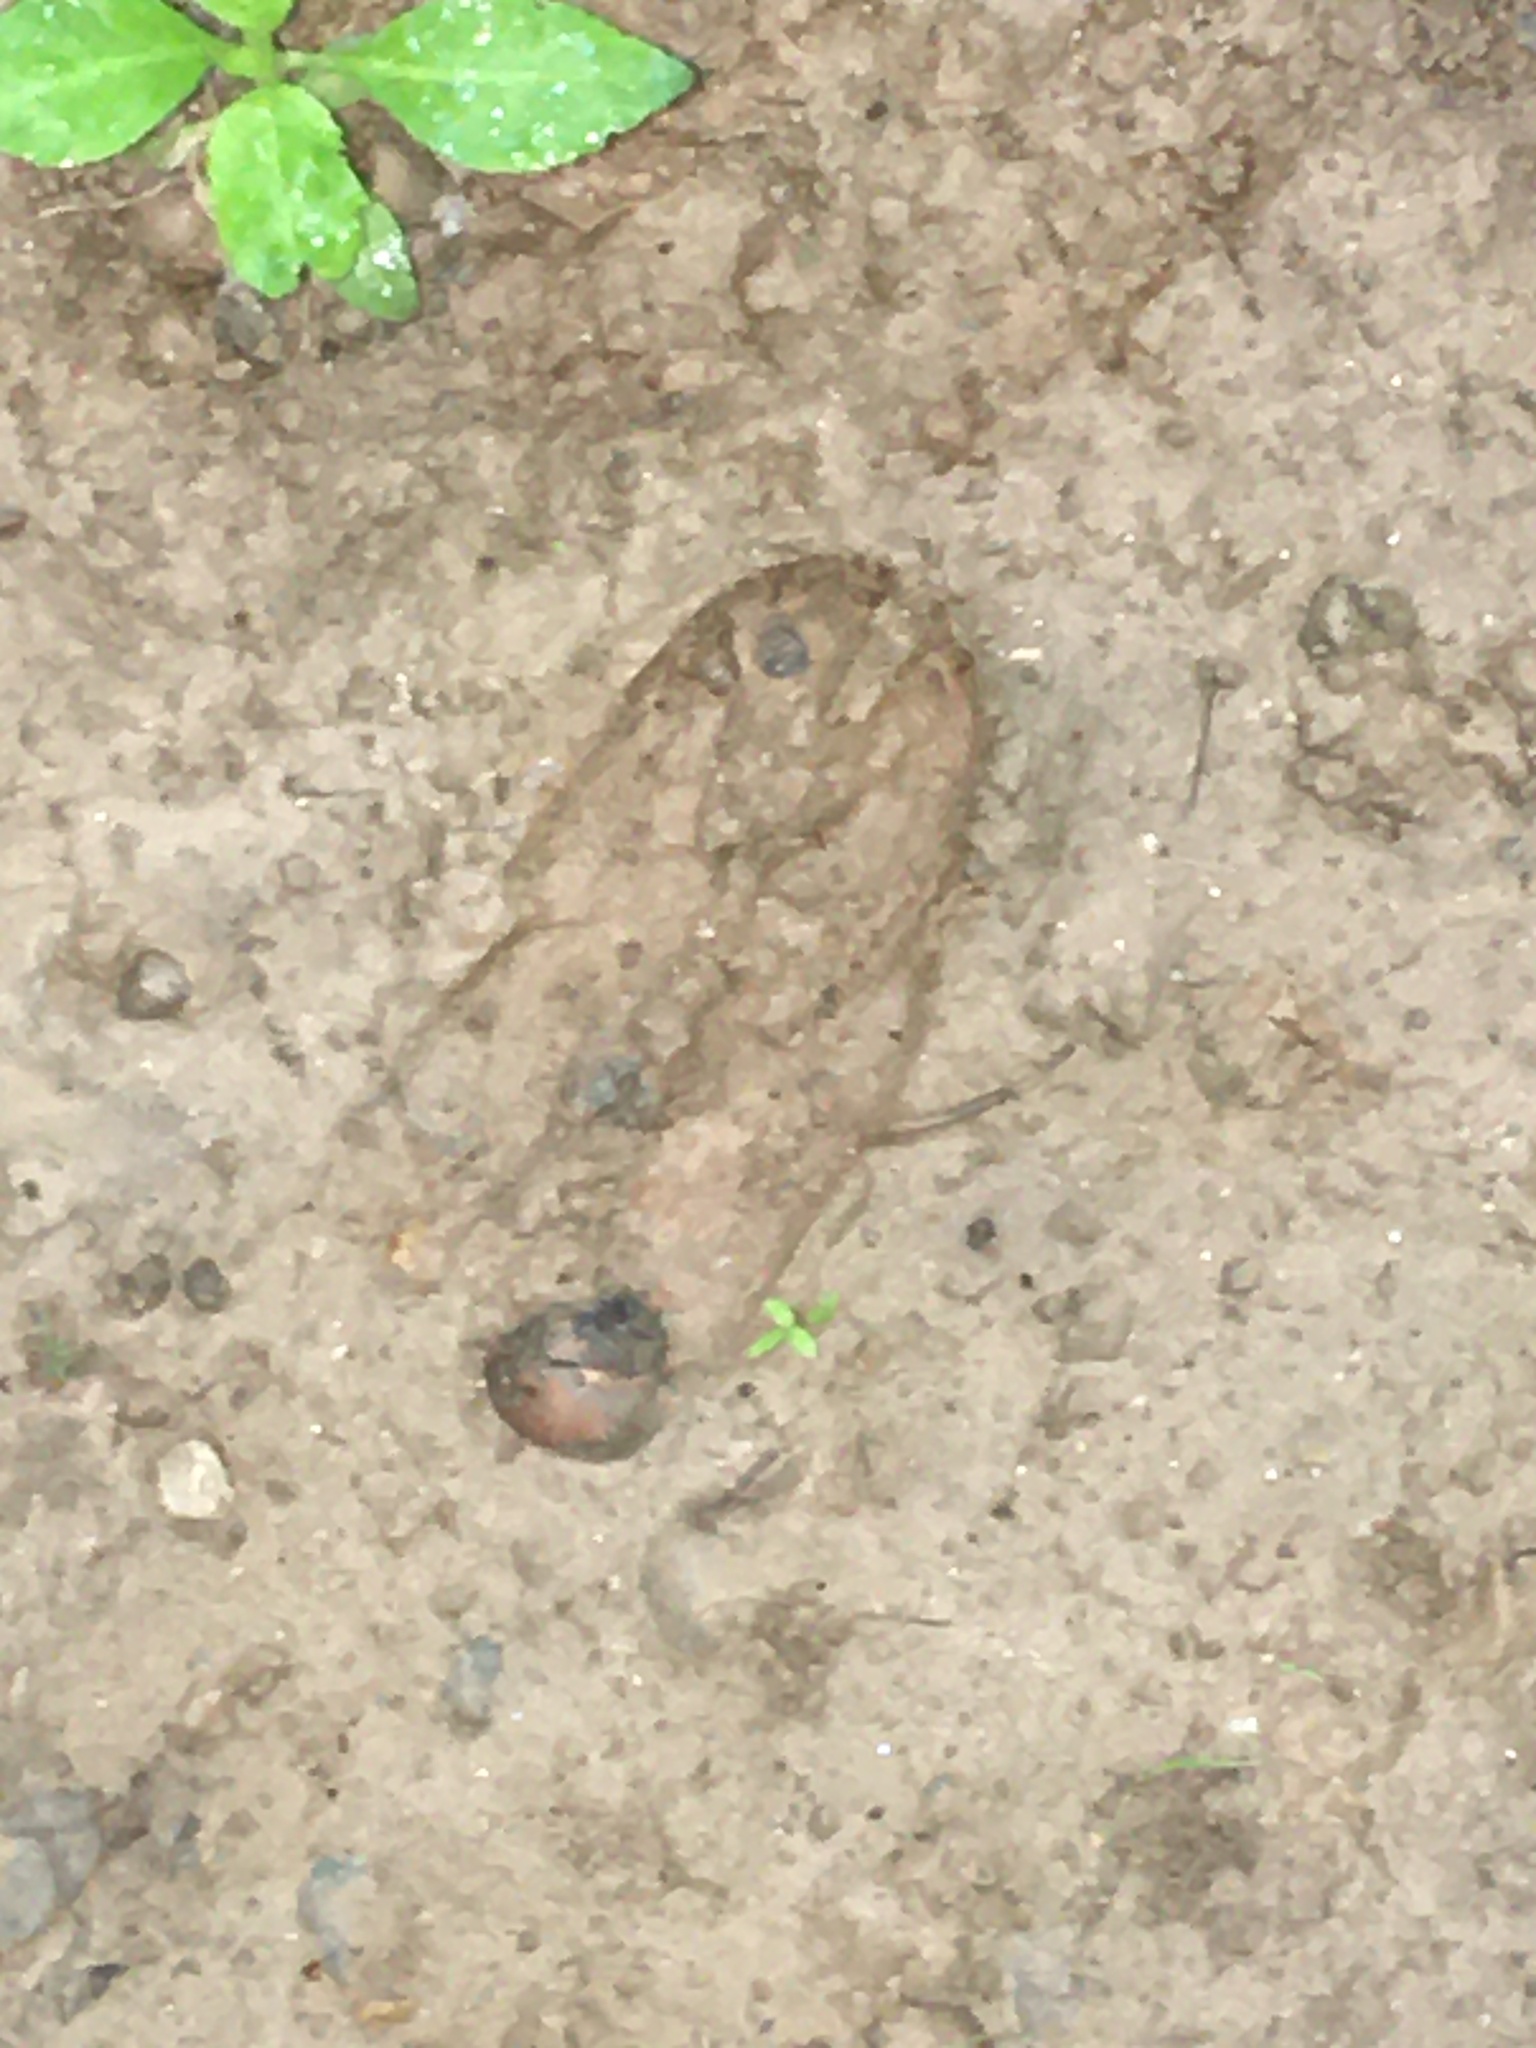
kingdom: Animalia
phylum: Chordata
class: Mammalia
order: Artiodactyla
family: Cervidae
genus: Odocoileus
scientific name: Odocoileus virginianus
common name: White-tailed deer
